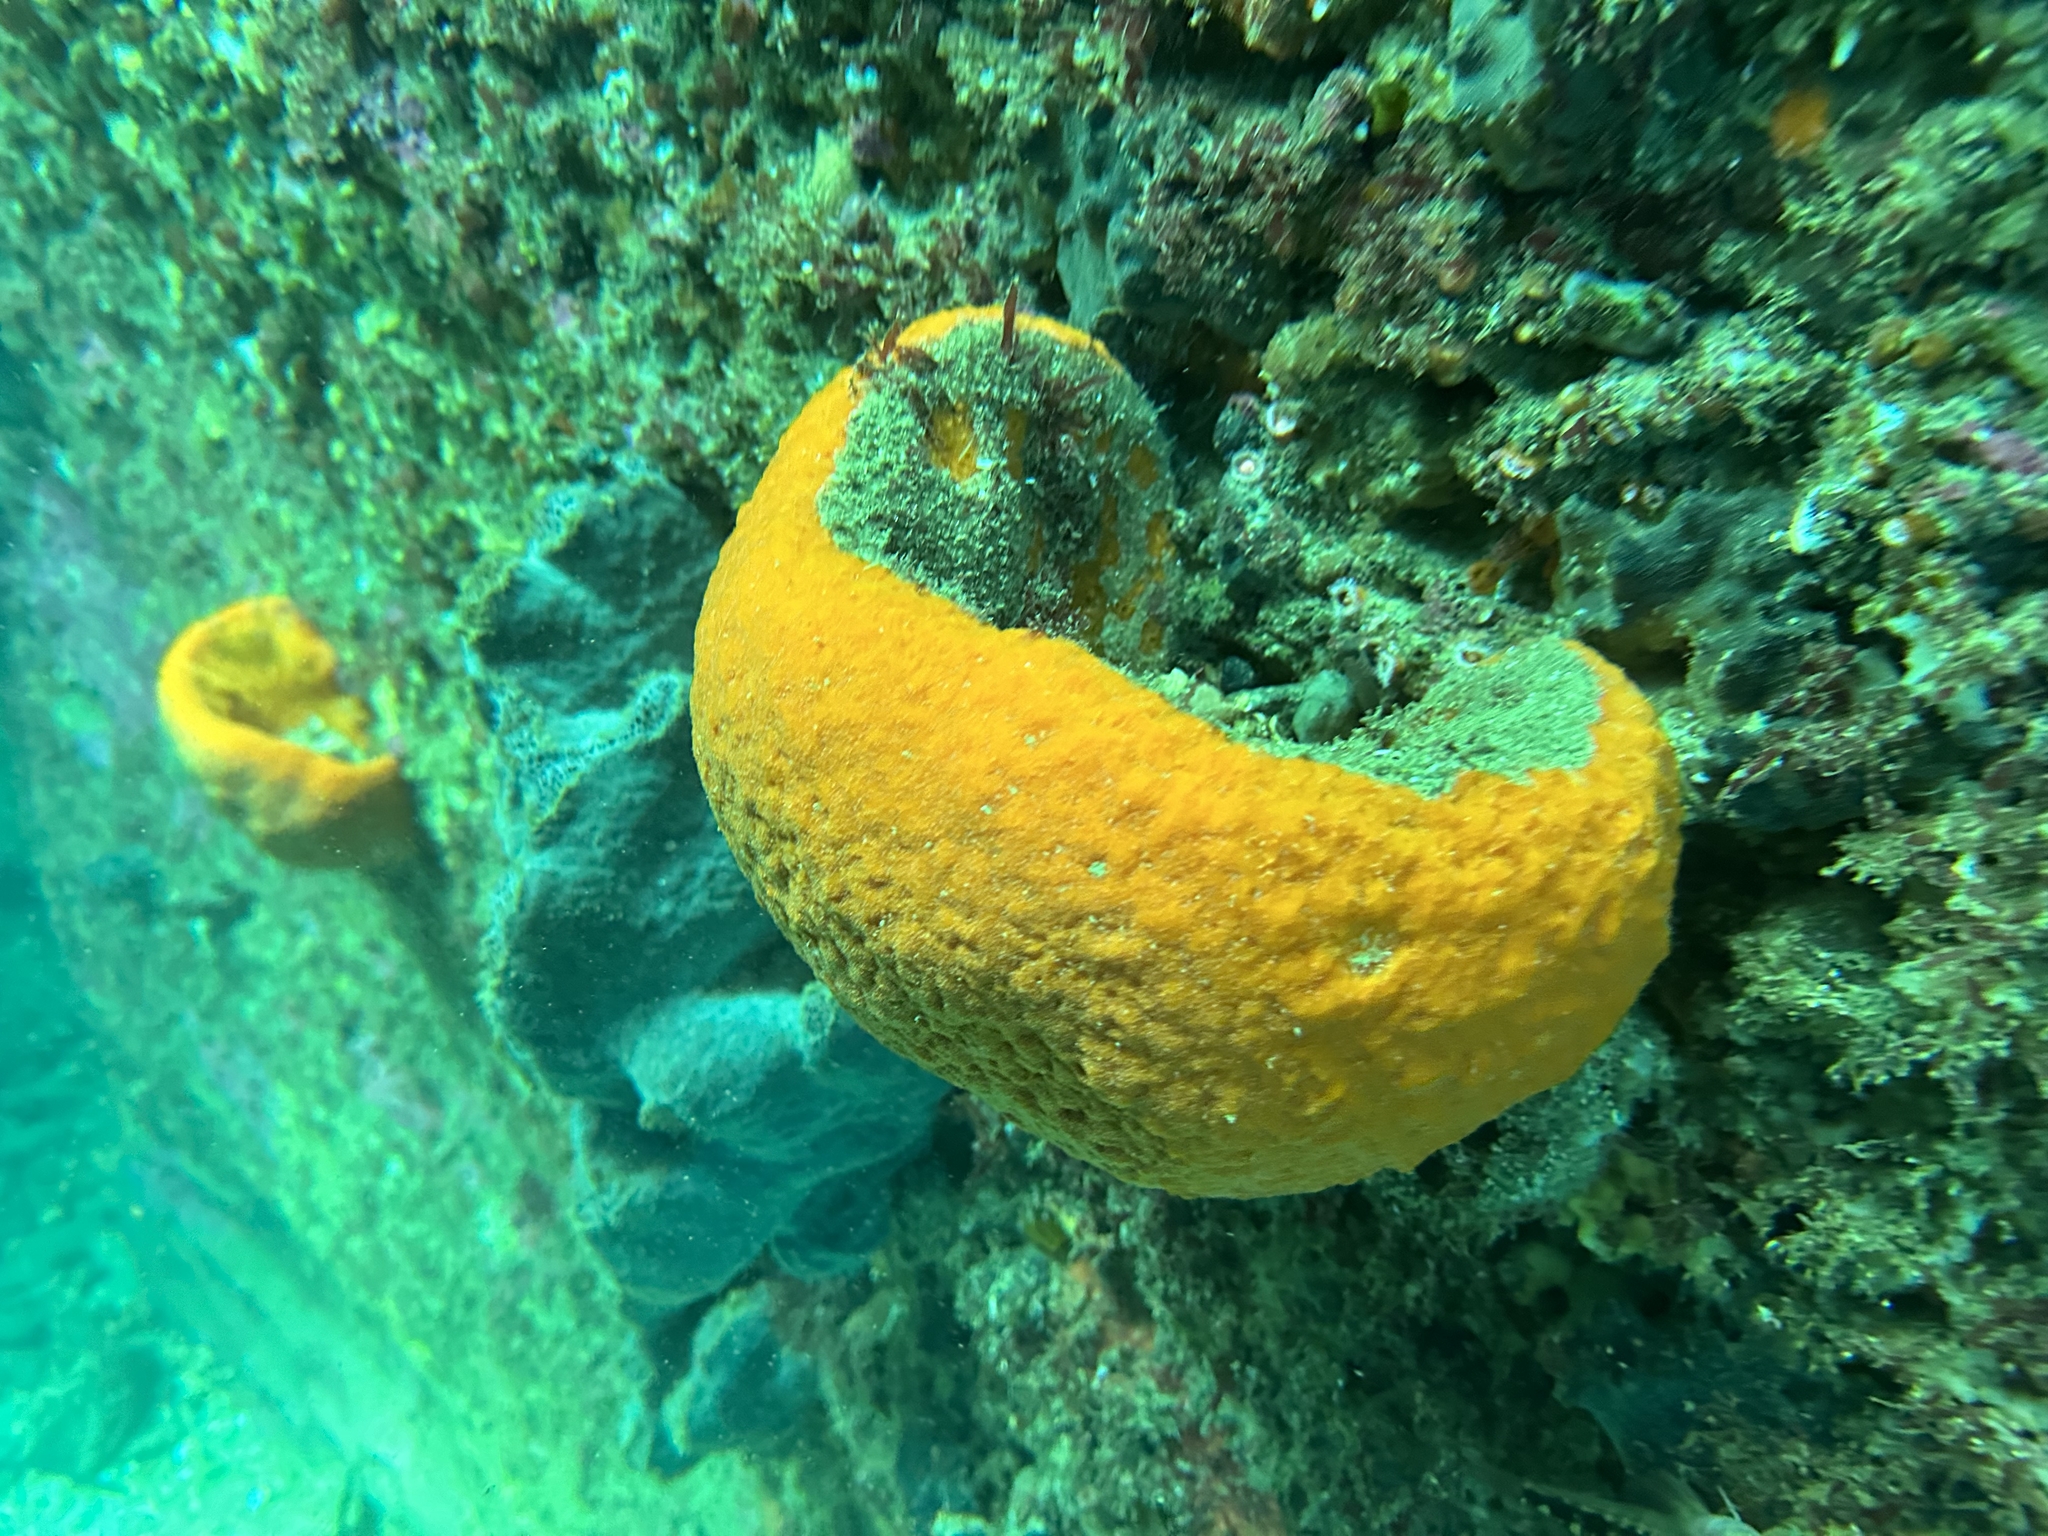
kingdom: Animalia
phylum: Porifera
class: Demospongiae
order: Tetractinellida
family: Ancorinidae
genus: Stelletta
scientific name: Stelletta crater
